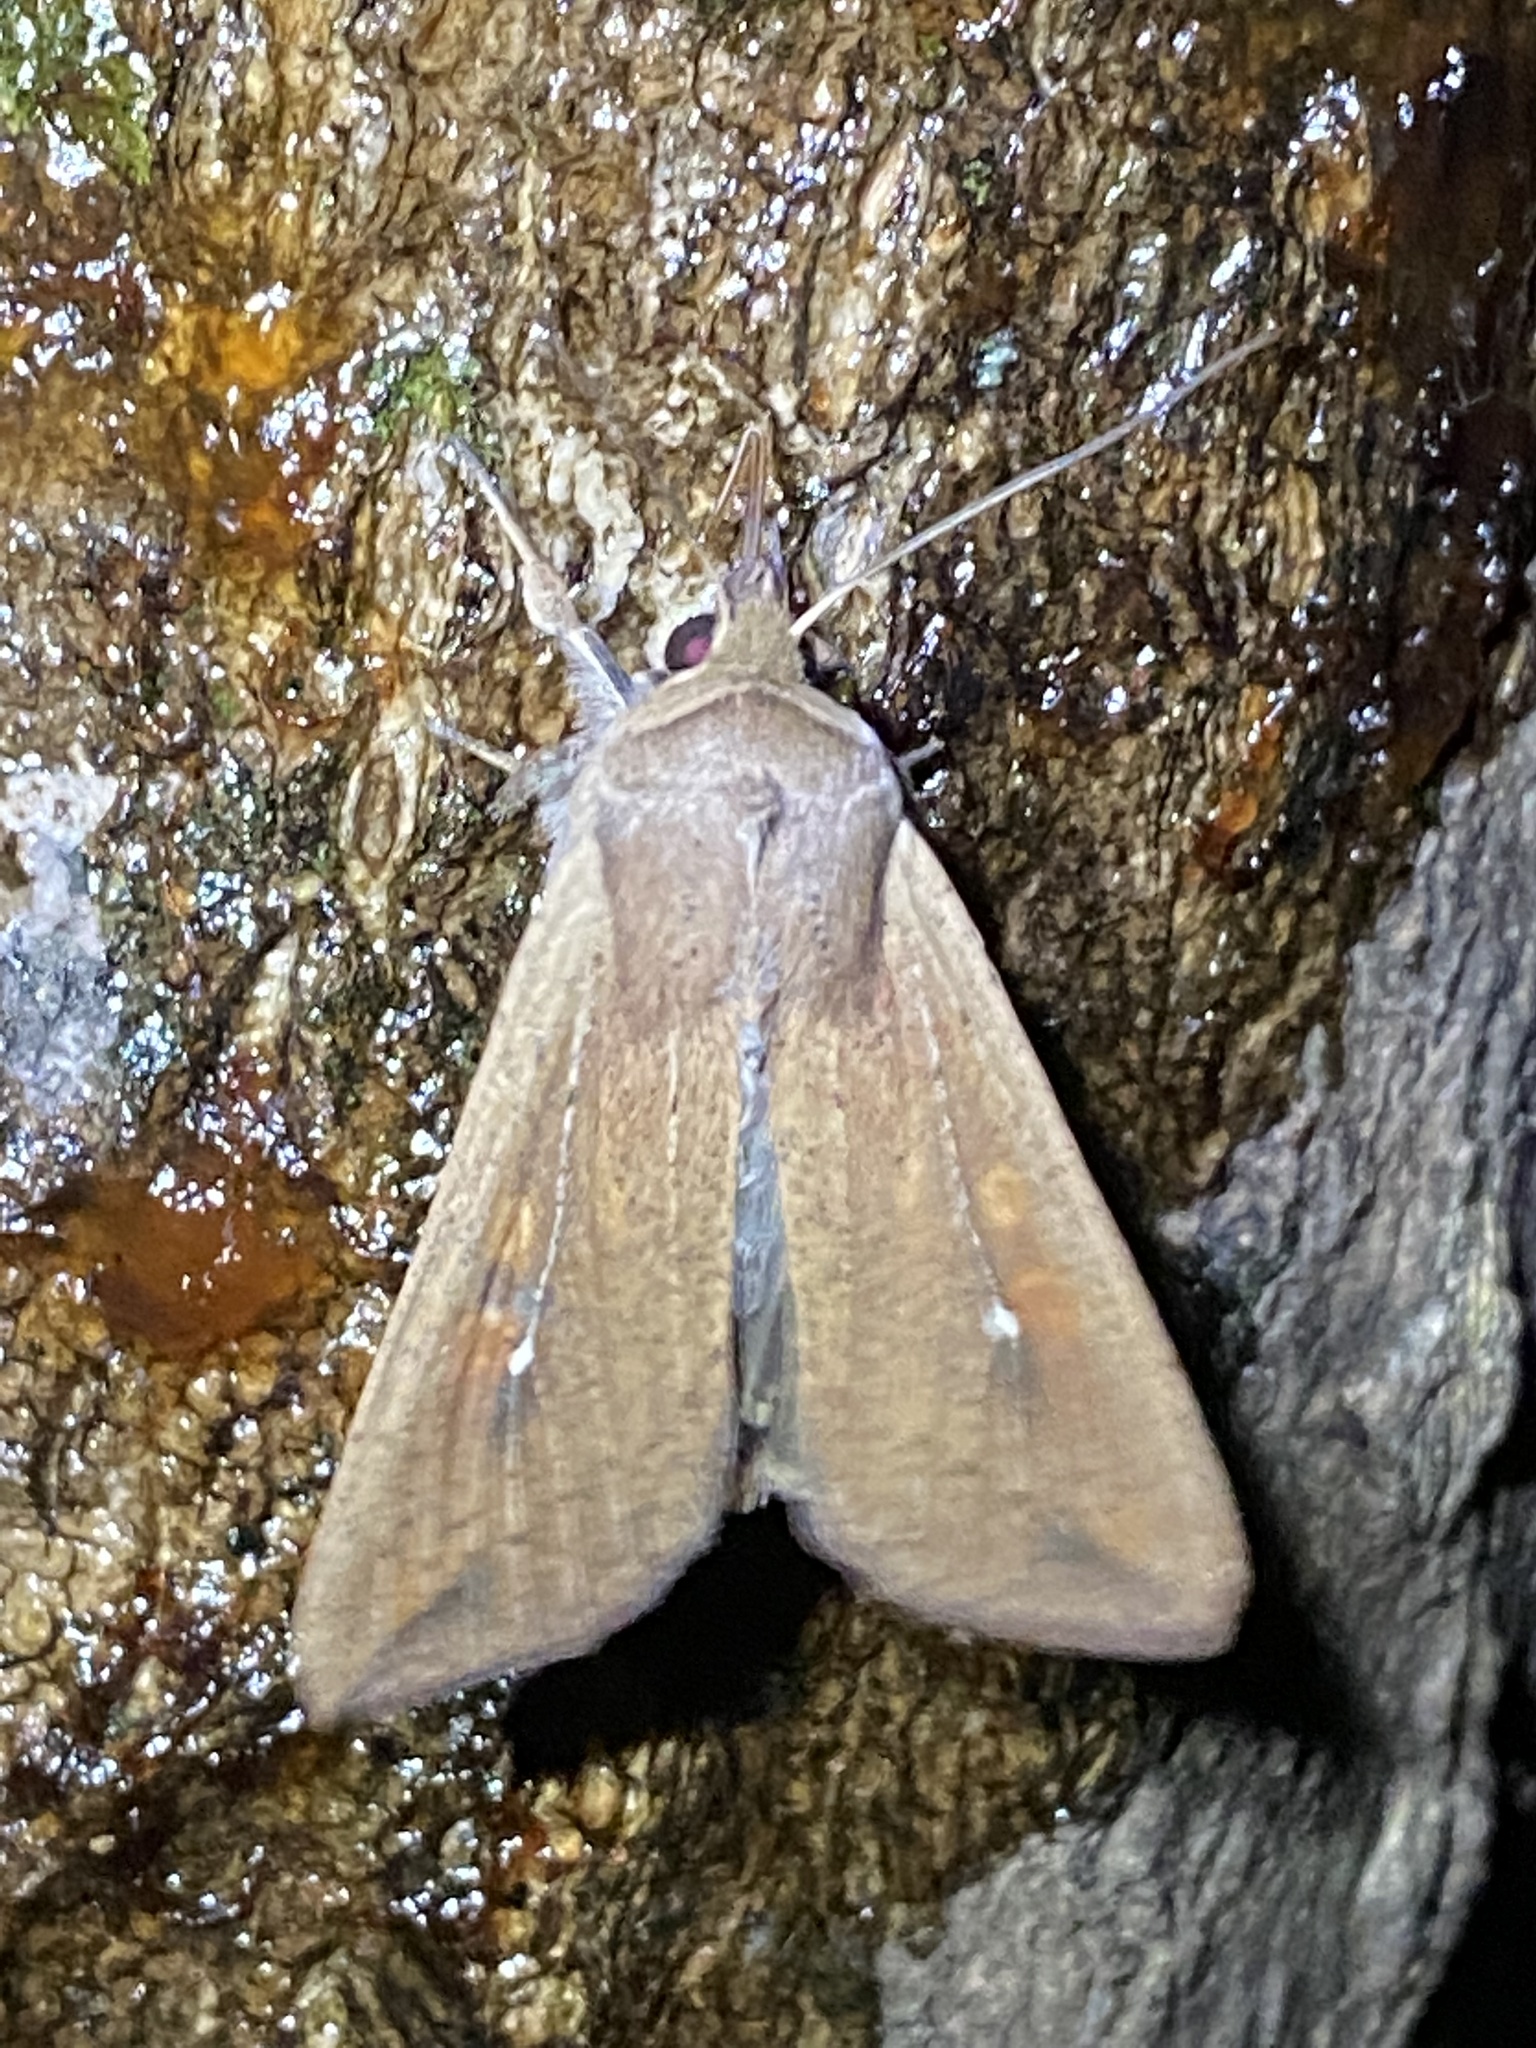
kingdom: Animalia
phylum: Arthropoda
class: Insecta
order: Lepidoptera
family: Noctuidae
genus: Mythimna
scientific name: Mythimna unipuncta
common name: White-speck
